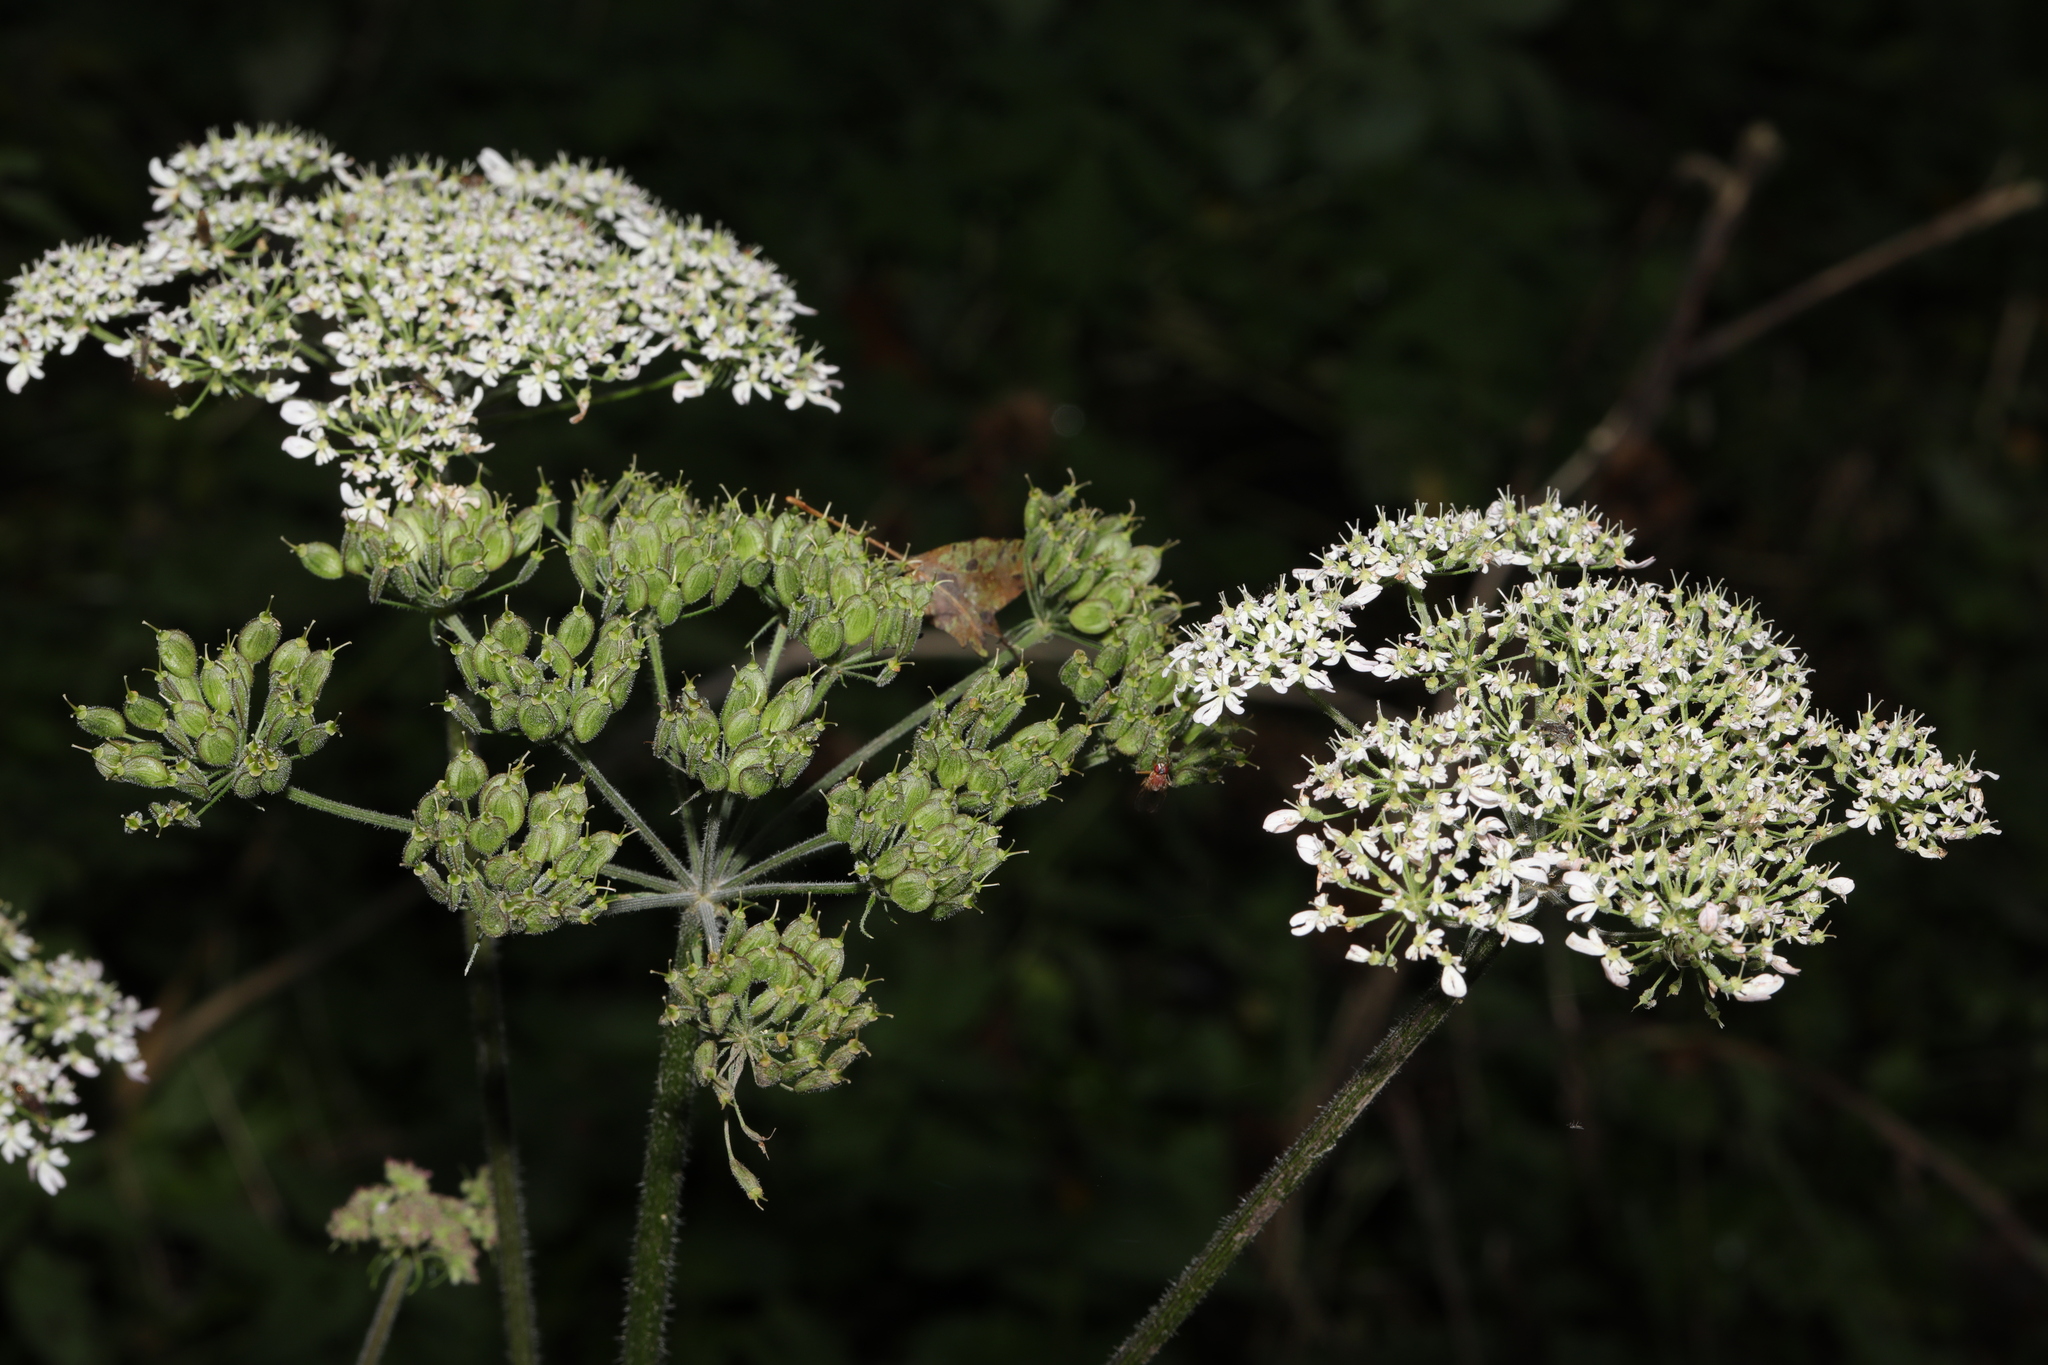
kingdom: Plantae
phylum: Tracheophyta
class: Magnoliopsida
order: Apiales
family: Apiaceae
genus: Heracleum
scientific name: Heracleum sphondylium
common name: Hogweed
